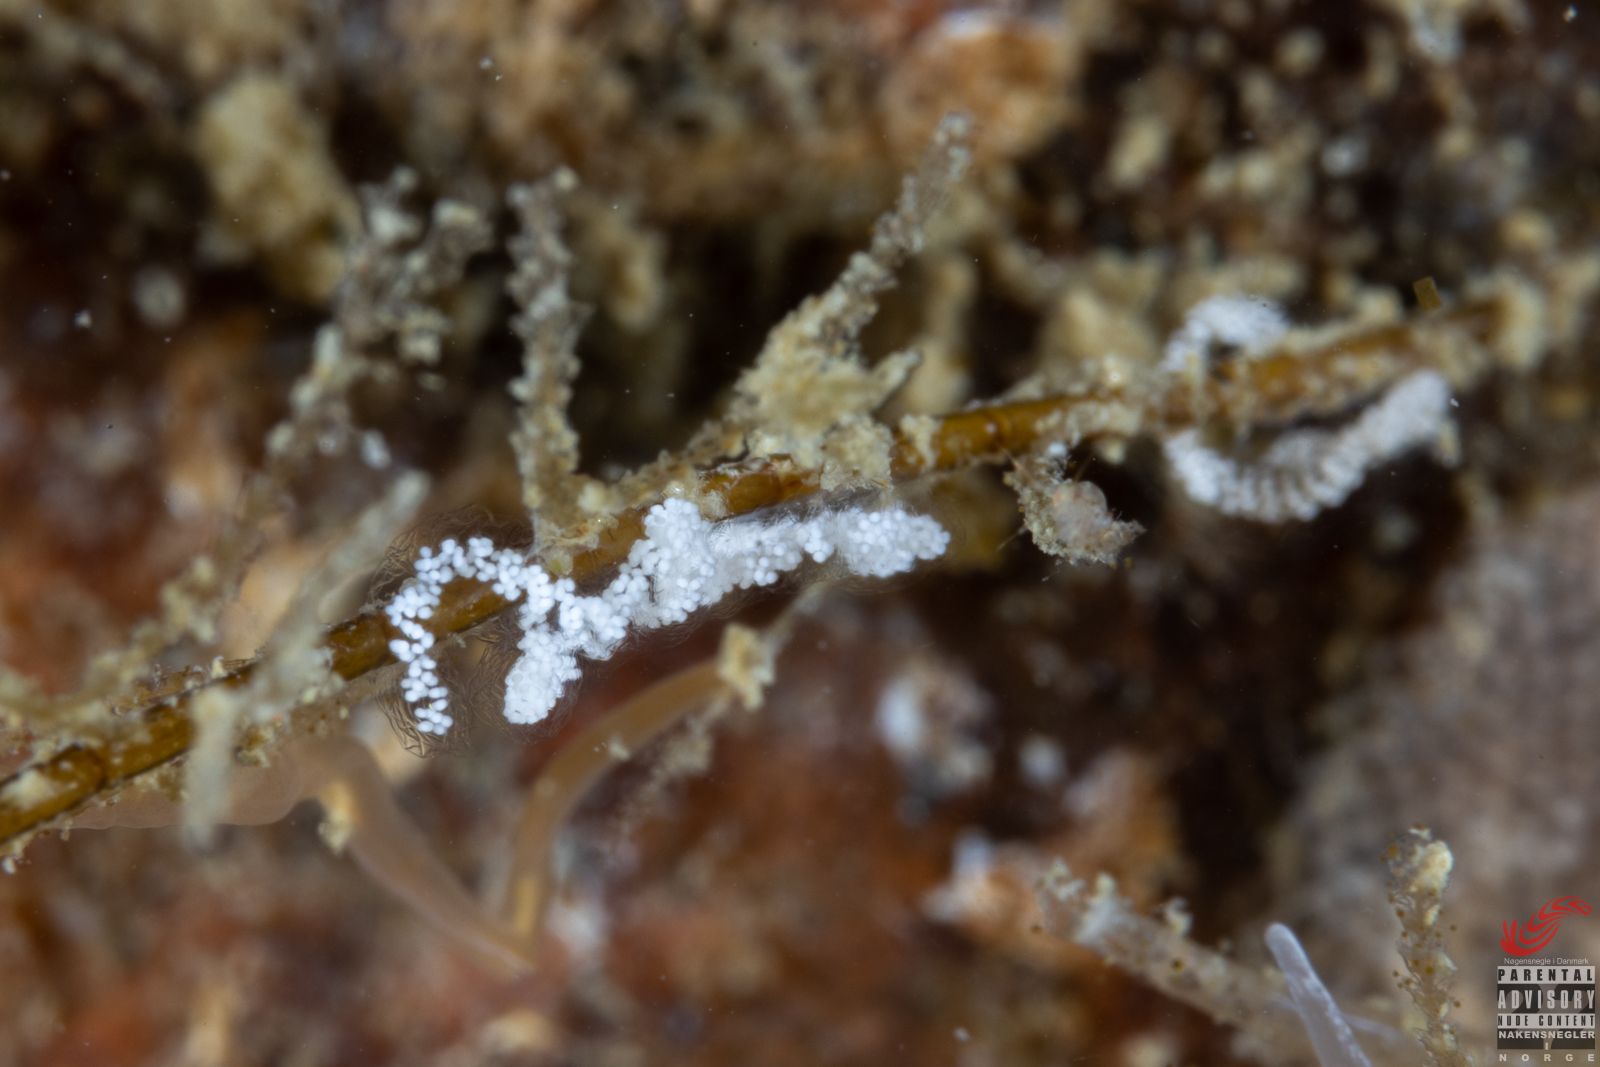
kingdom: Animalia
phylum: Mollusca
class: Gastropoda
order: Nudibranchia
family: Cuthonellidae
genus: Cuthonella
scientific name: Cuthonella concinna
